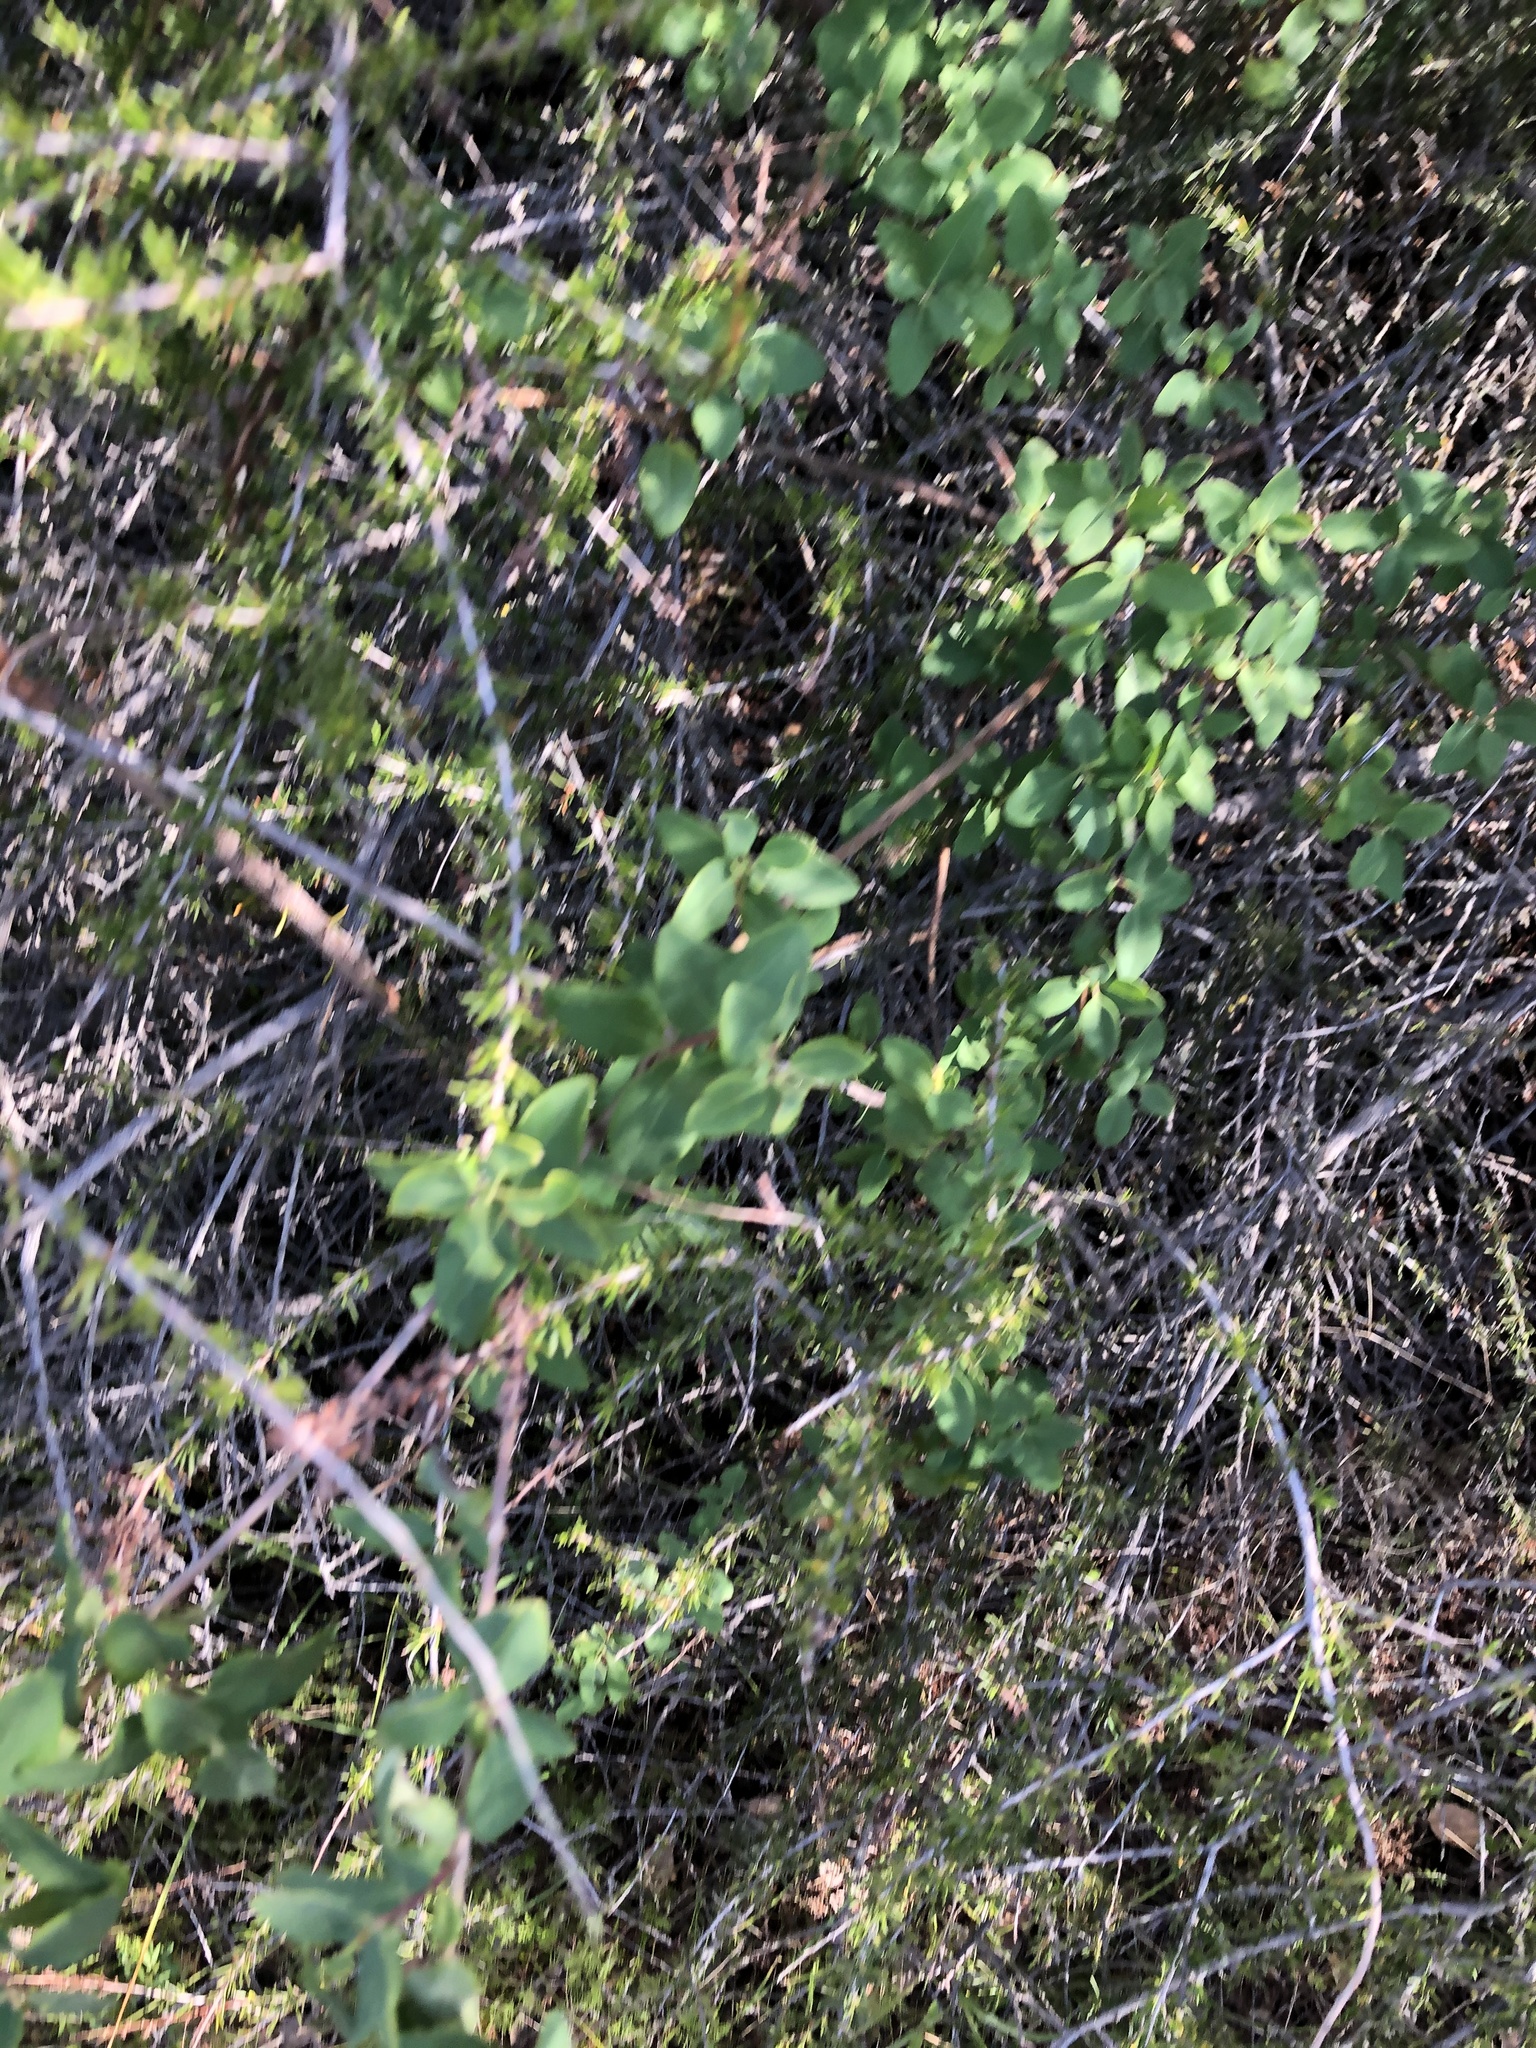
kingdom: Plantae
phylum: Tracheophyta
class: Magnoliopsida
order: Dipsacales
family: Caprifoliaceae
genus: Lonicera
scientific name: Lonicera subspicata
